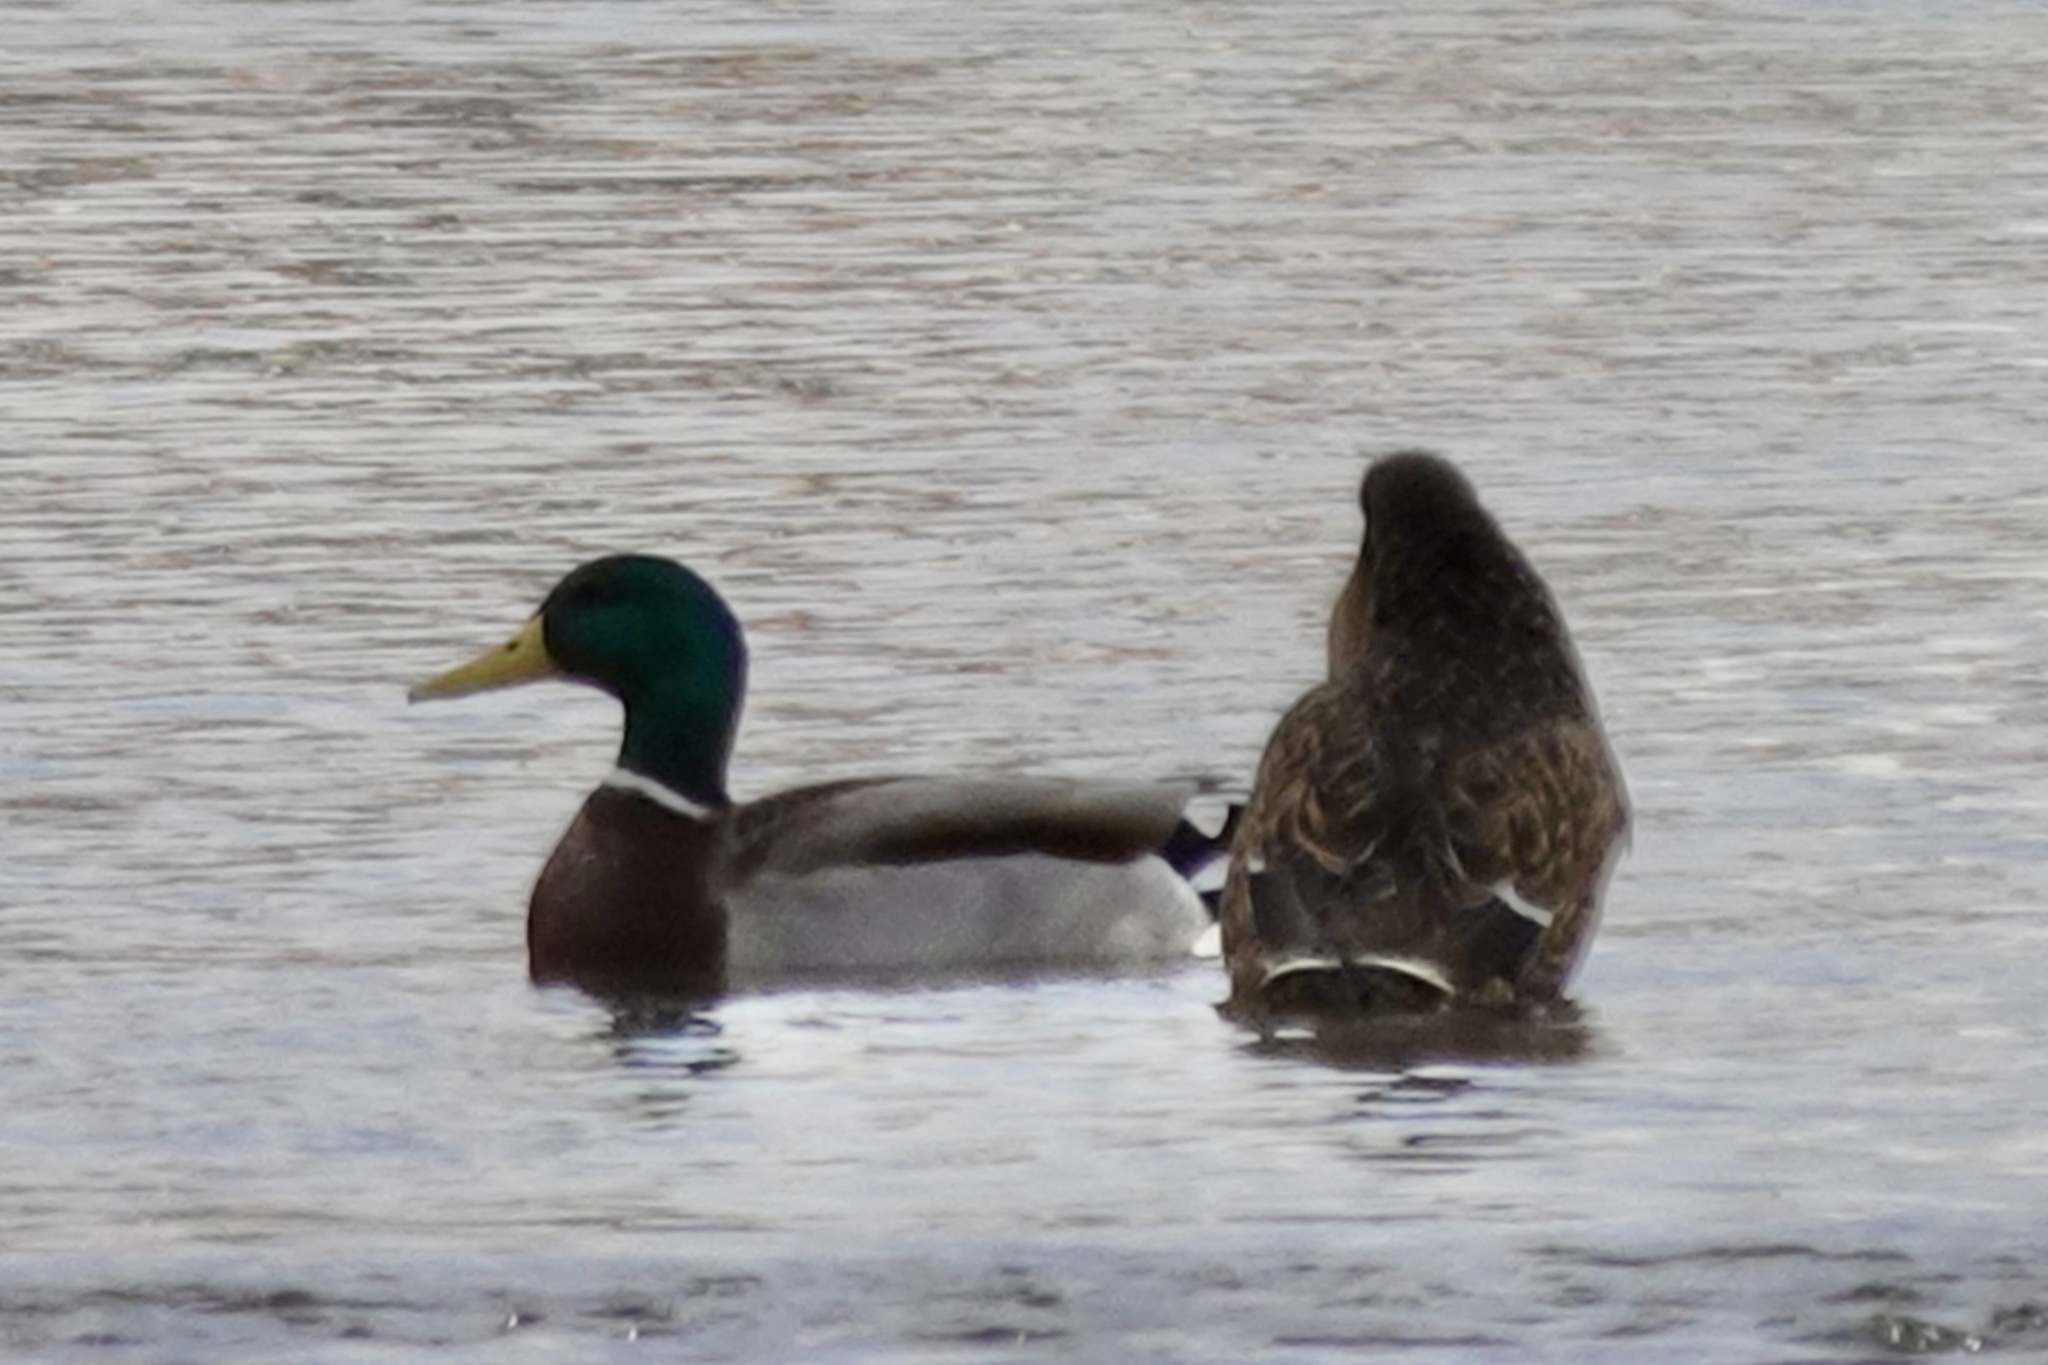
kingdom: Animalia
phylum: Chordata
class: Aves
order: Anseriformes
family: Anatidae
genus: Anas
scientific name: Anas platyrhynchos
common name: Mallard
